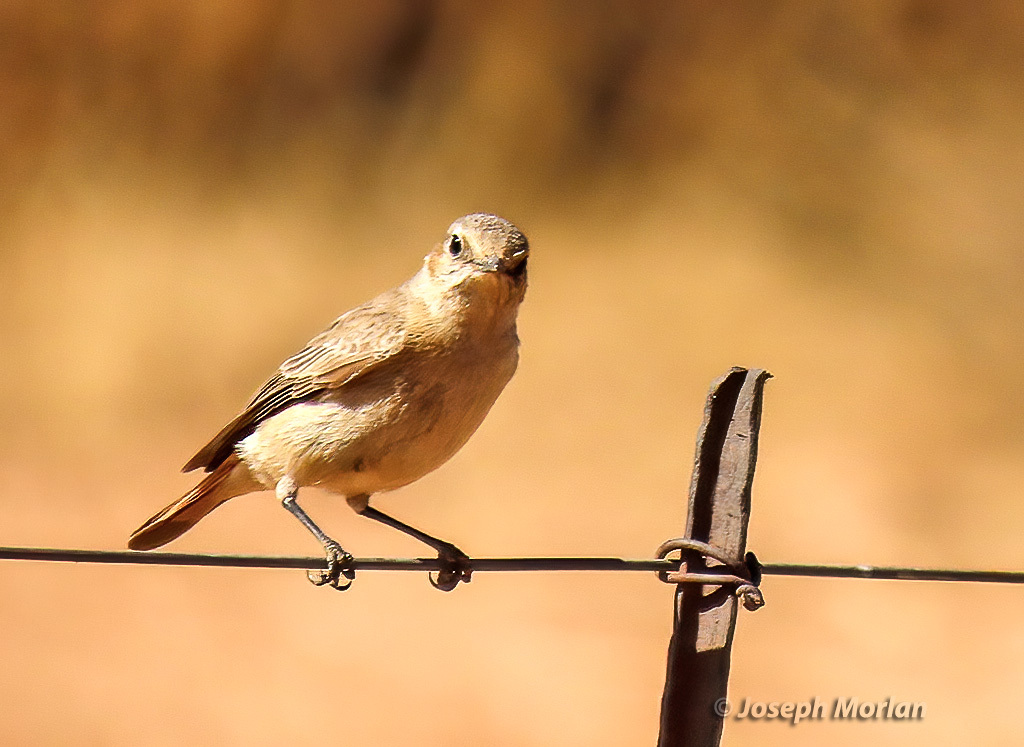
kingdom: Animalia
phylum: Chordata
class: Aves
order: Passeriformes
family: Muscicapidae
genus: Oenanthe
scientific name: Oenanthe familiaris
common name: Familiar chat
